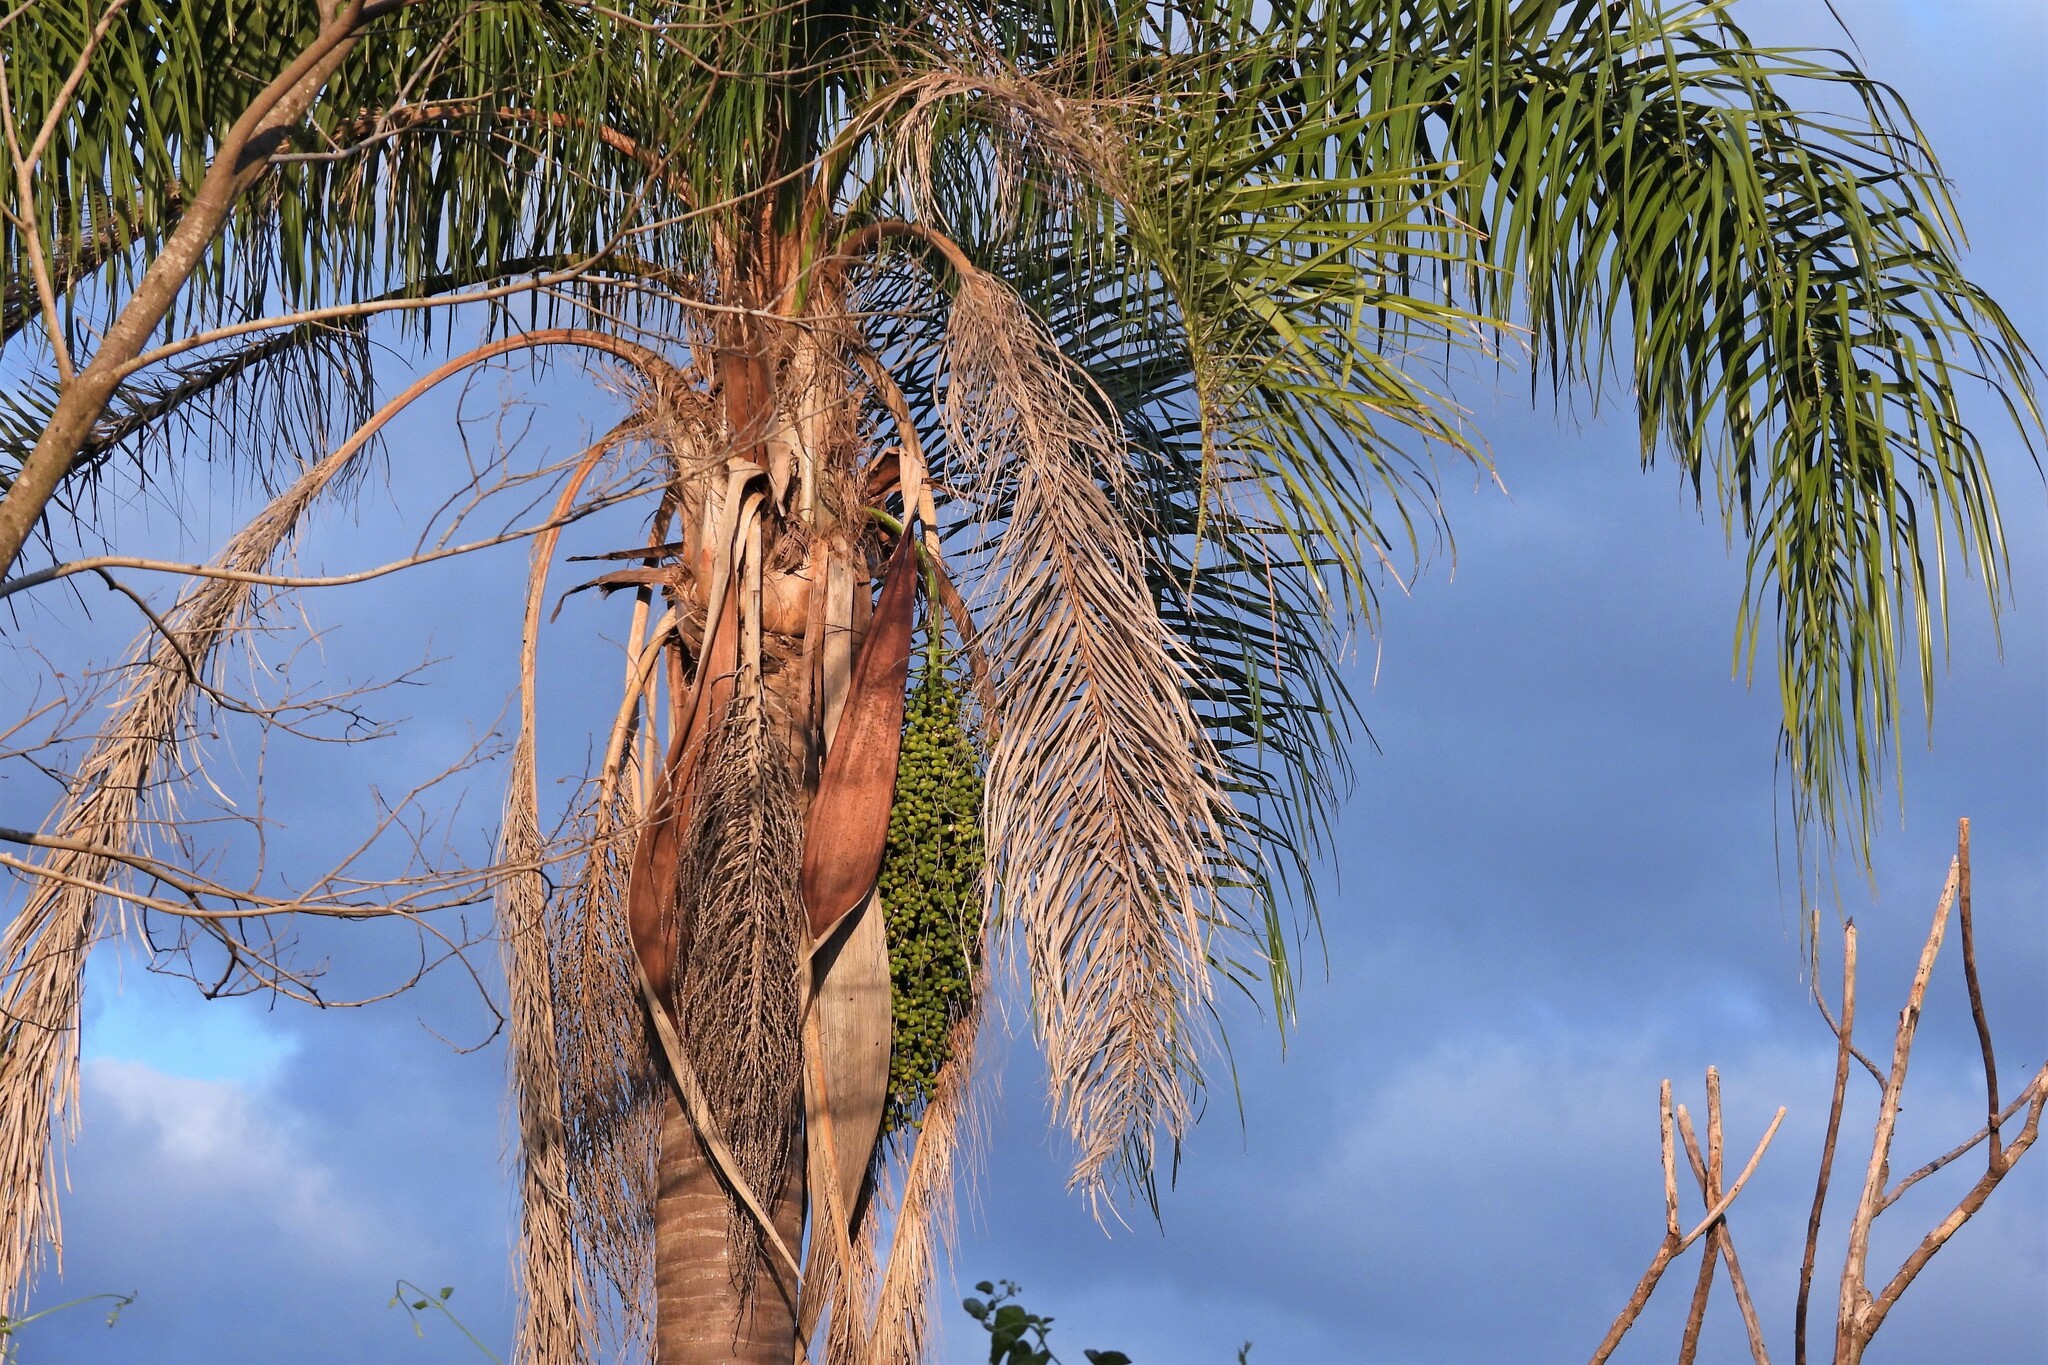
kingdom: Plantae
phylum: Tracheophyta
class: Liliopsida
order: Arecales
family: Arecaceae
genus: Syagrus
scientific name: Syagrus romanzoffiana
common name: Queen palm
